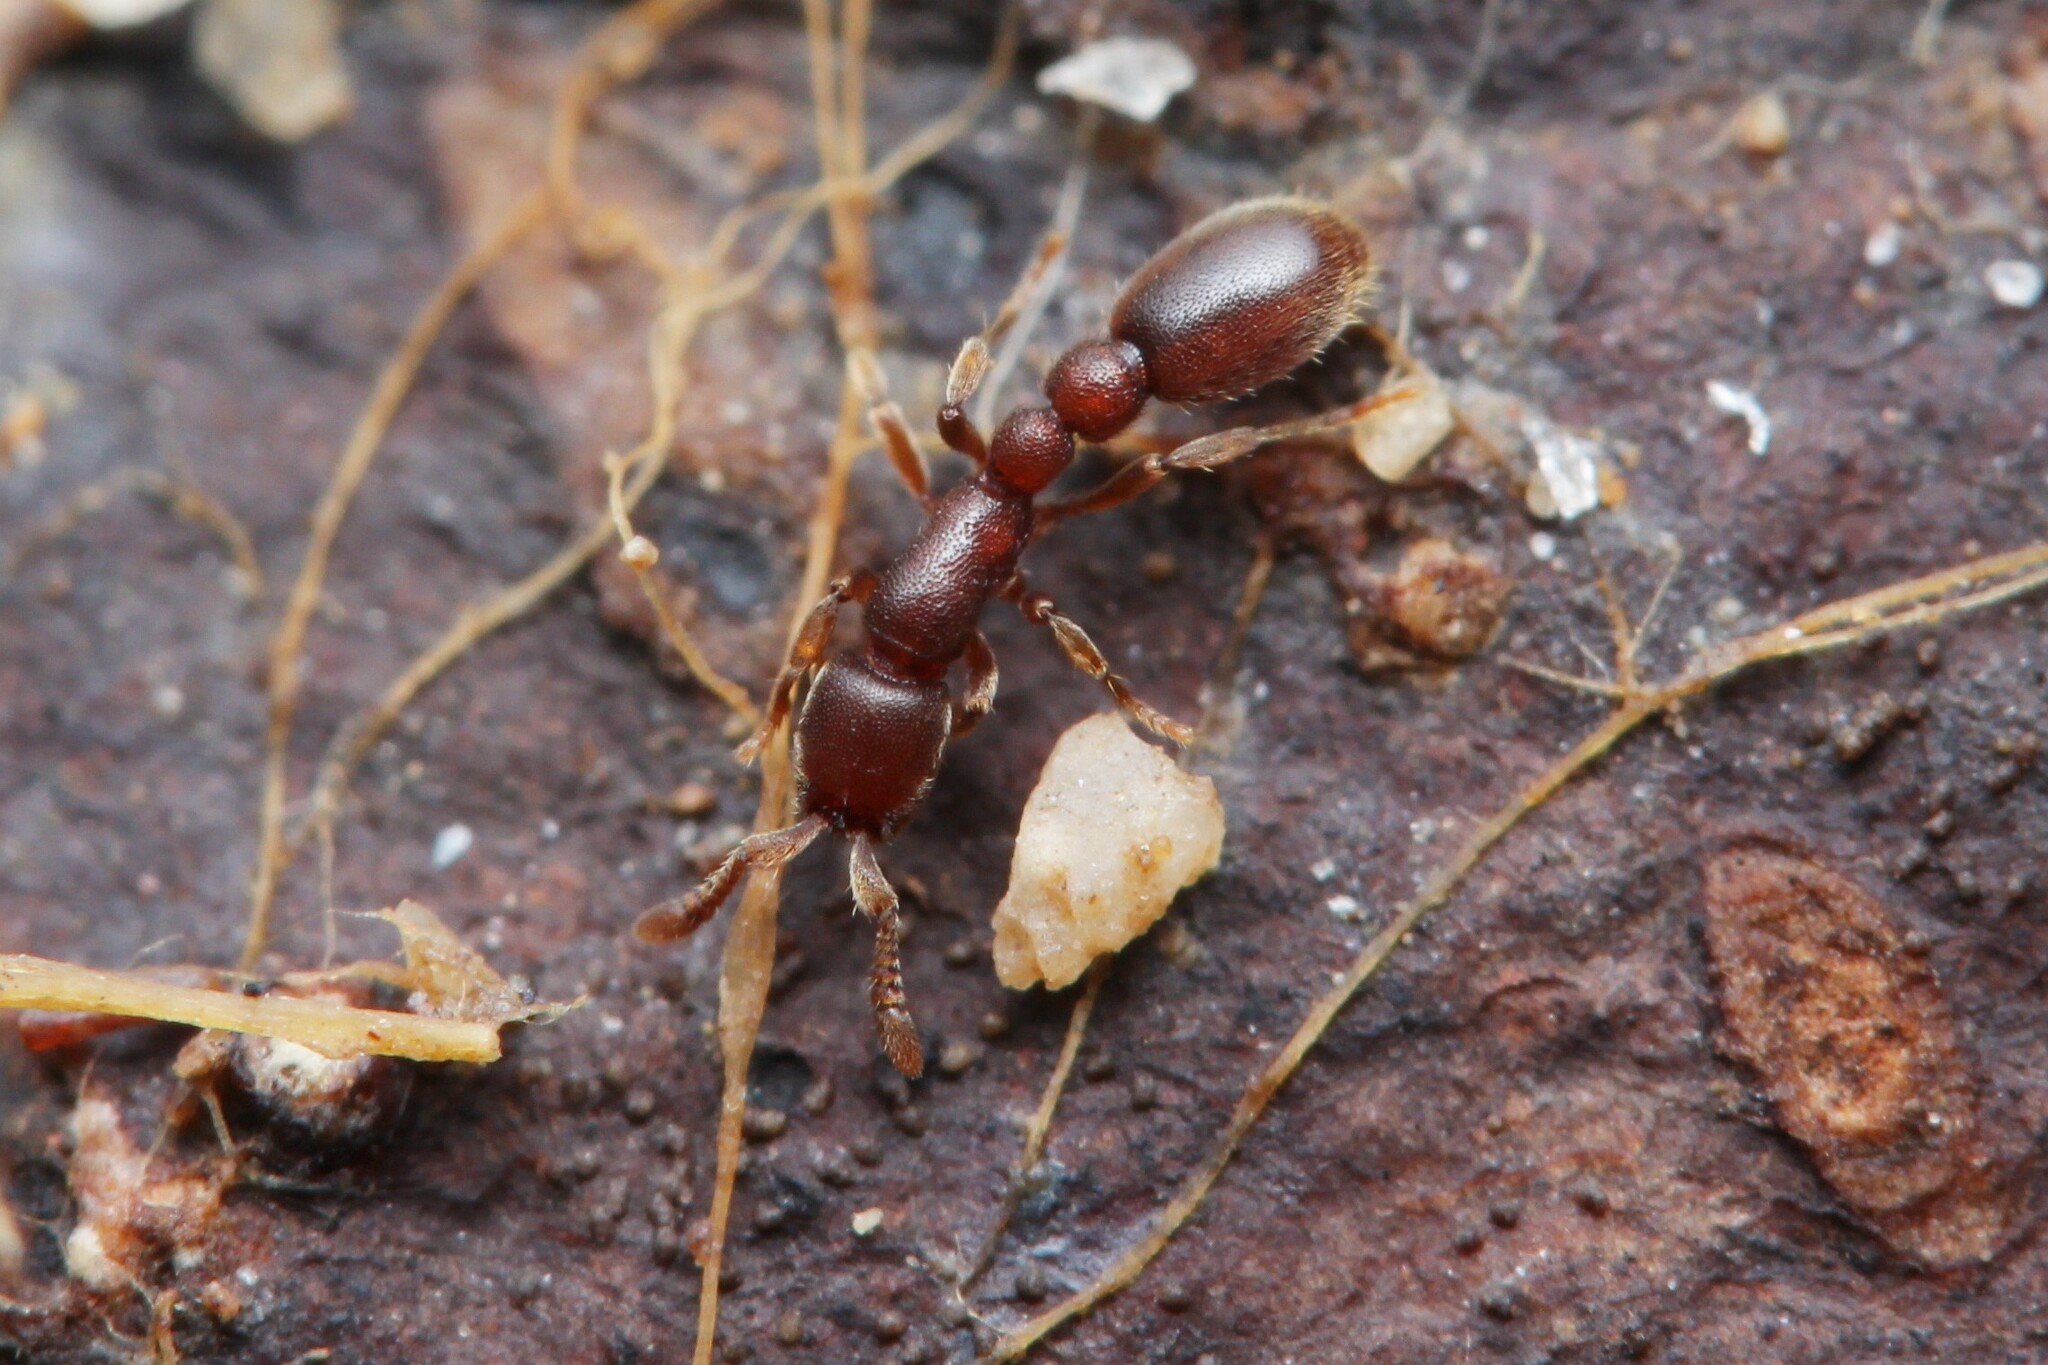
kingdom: Animalia
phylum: Arthropoda
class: Insecta
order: Hymenoptera
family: Formicidae
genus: Ooceraea
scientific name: Ooceraea
